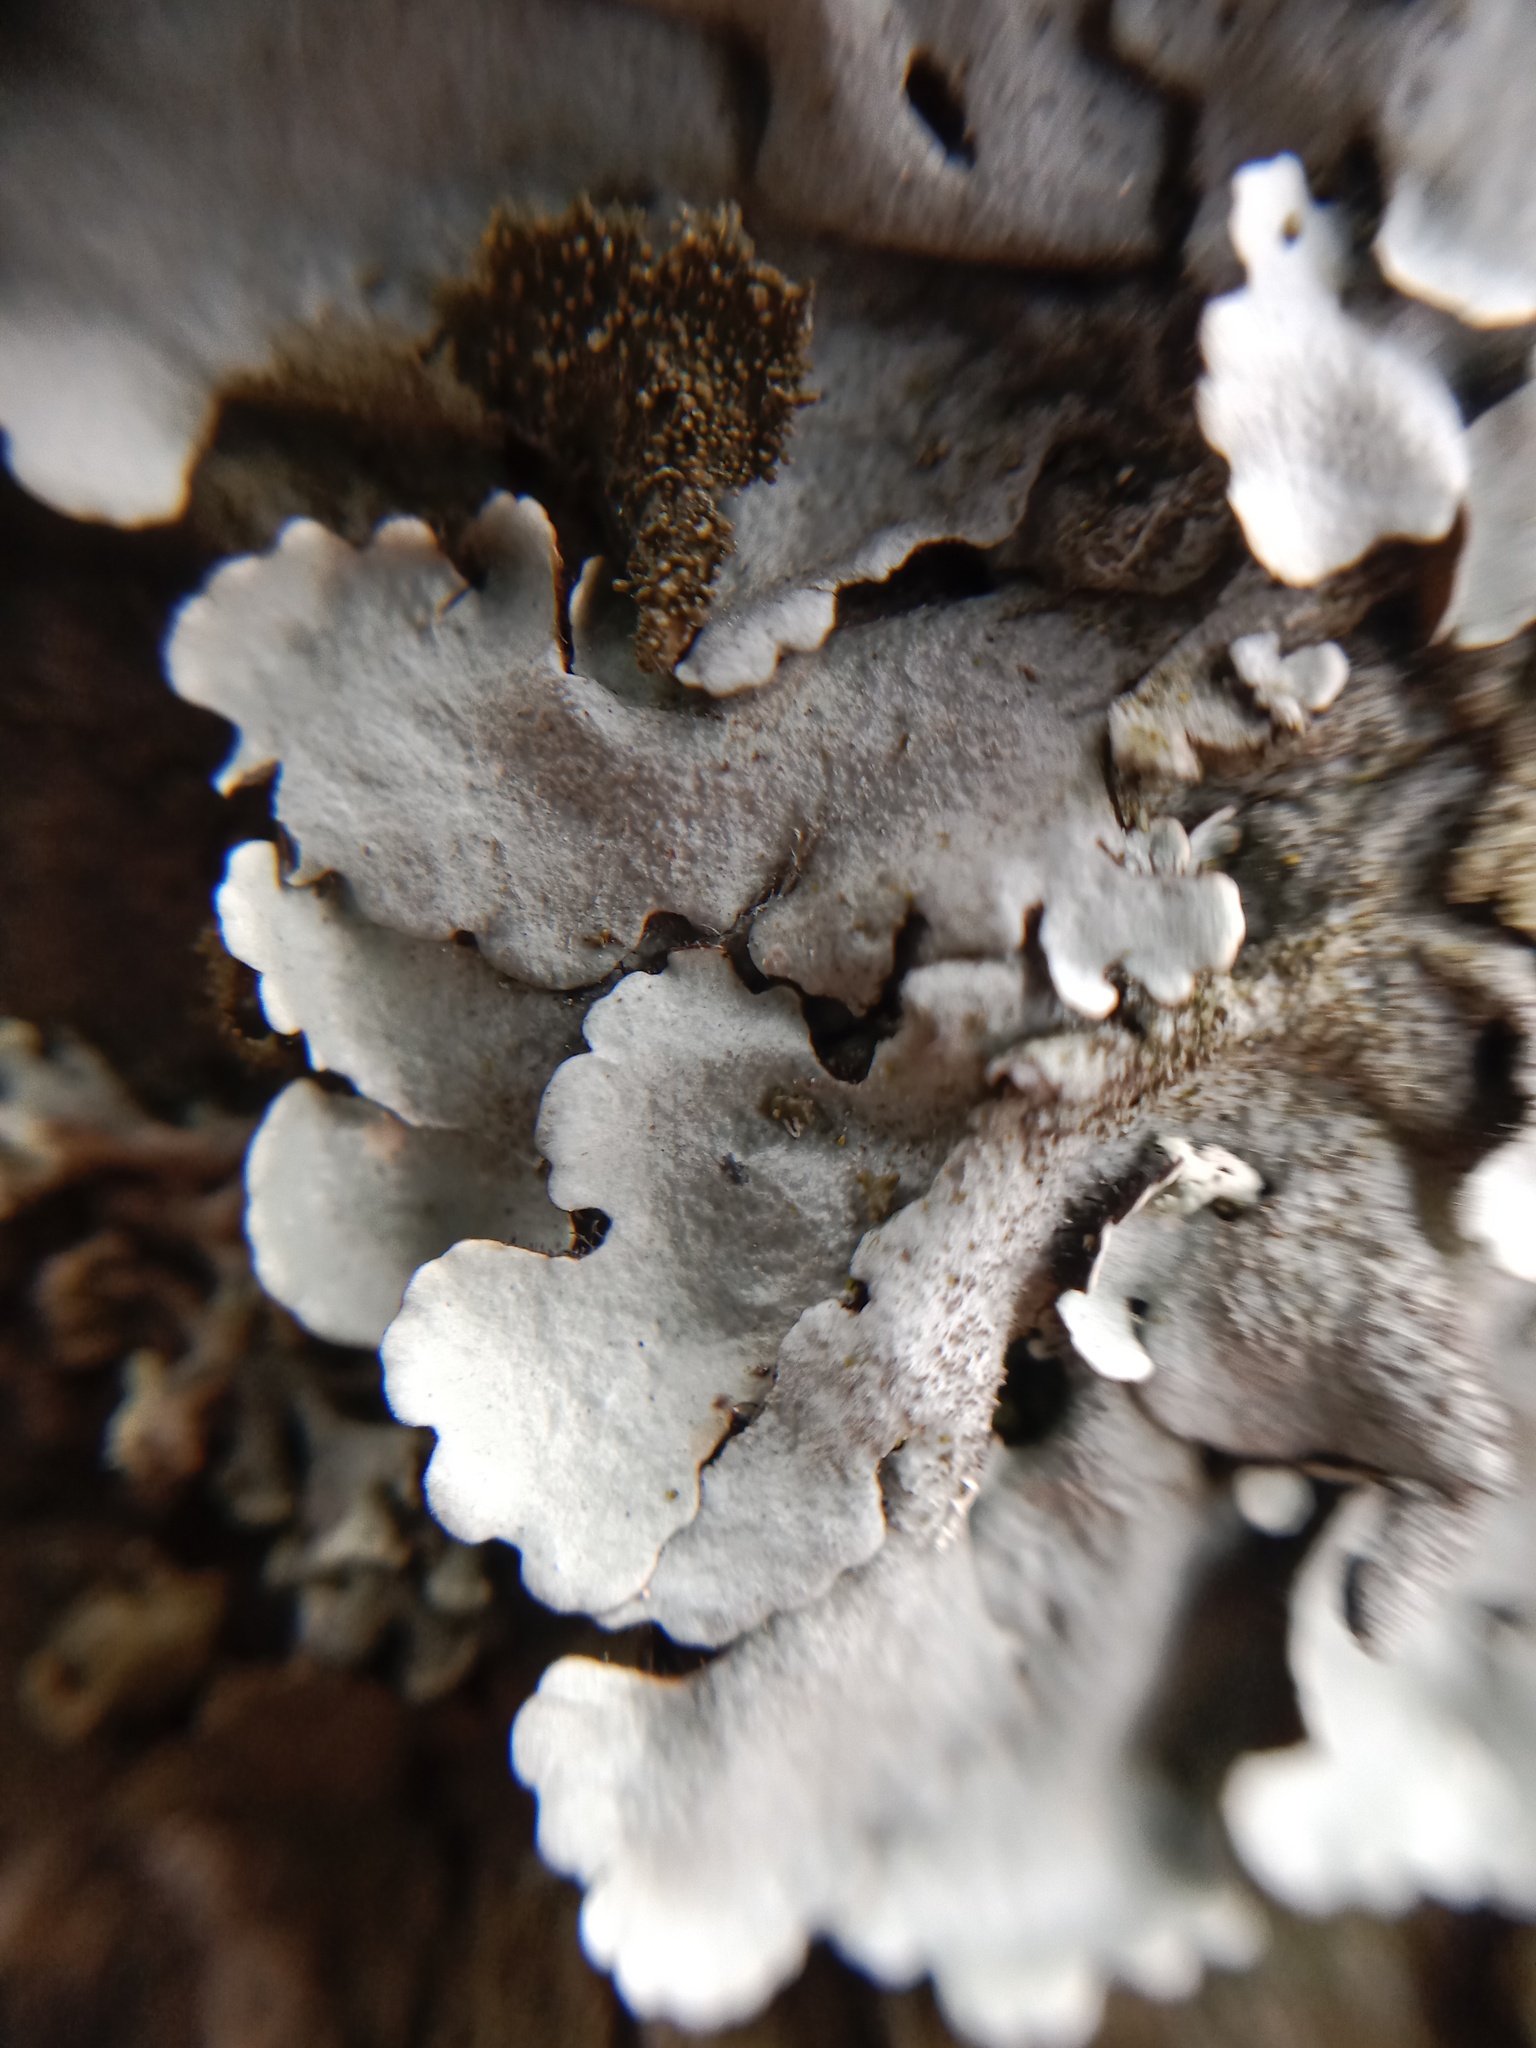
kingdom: Fungi
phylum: Ascomycota
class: Lecanoromycetes
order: Lecanorales
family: Parmeliaceae
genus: Parmelina
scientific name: Parmelina tiliacea
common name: Linden shield lichen
